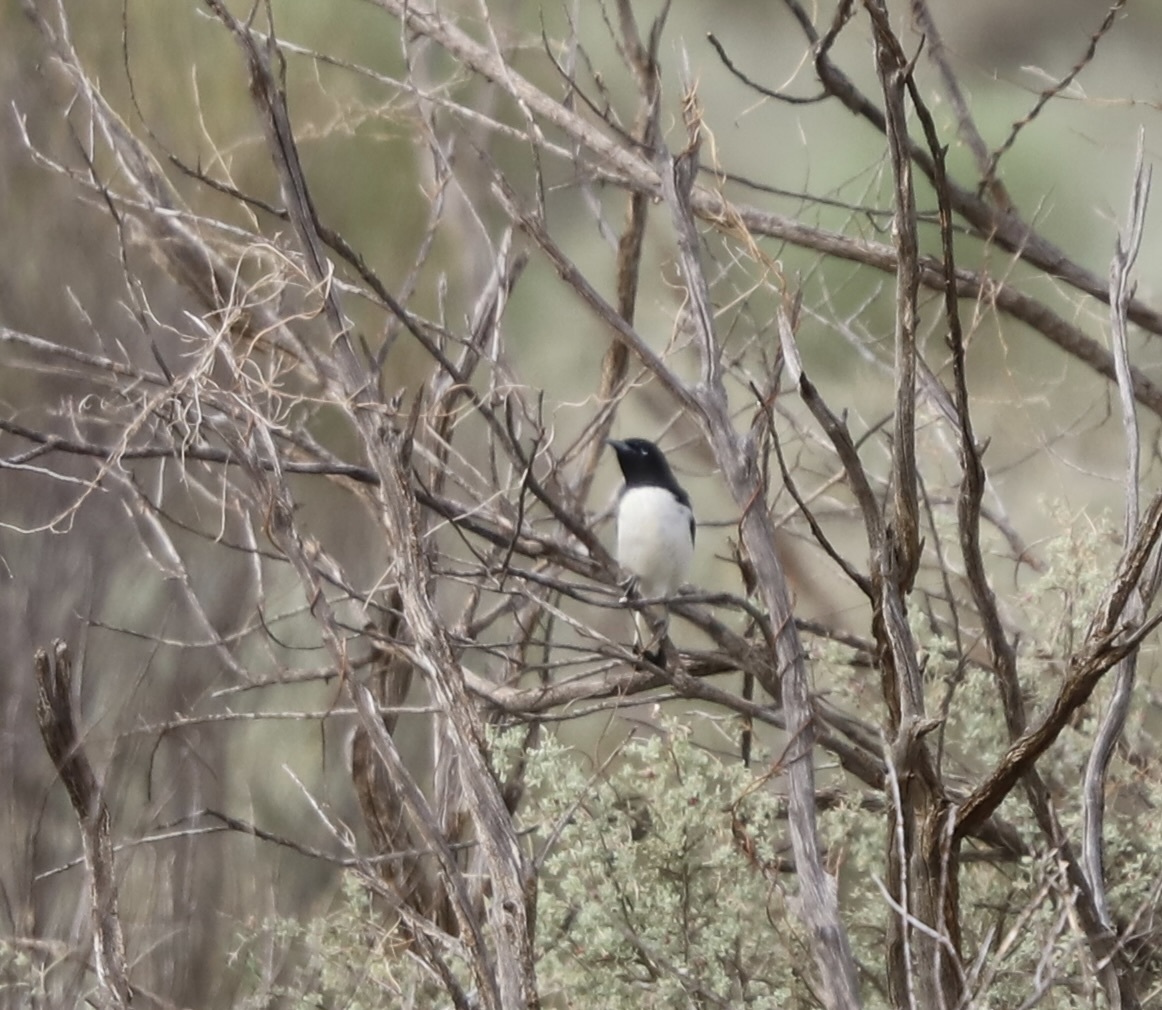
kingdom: Animalia
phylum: Chordata
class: Aves
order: Passeriformes
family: Meliphagidae
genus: Certhionyx
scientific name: Certhionyx variegatus
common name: Pied honeyeater
